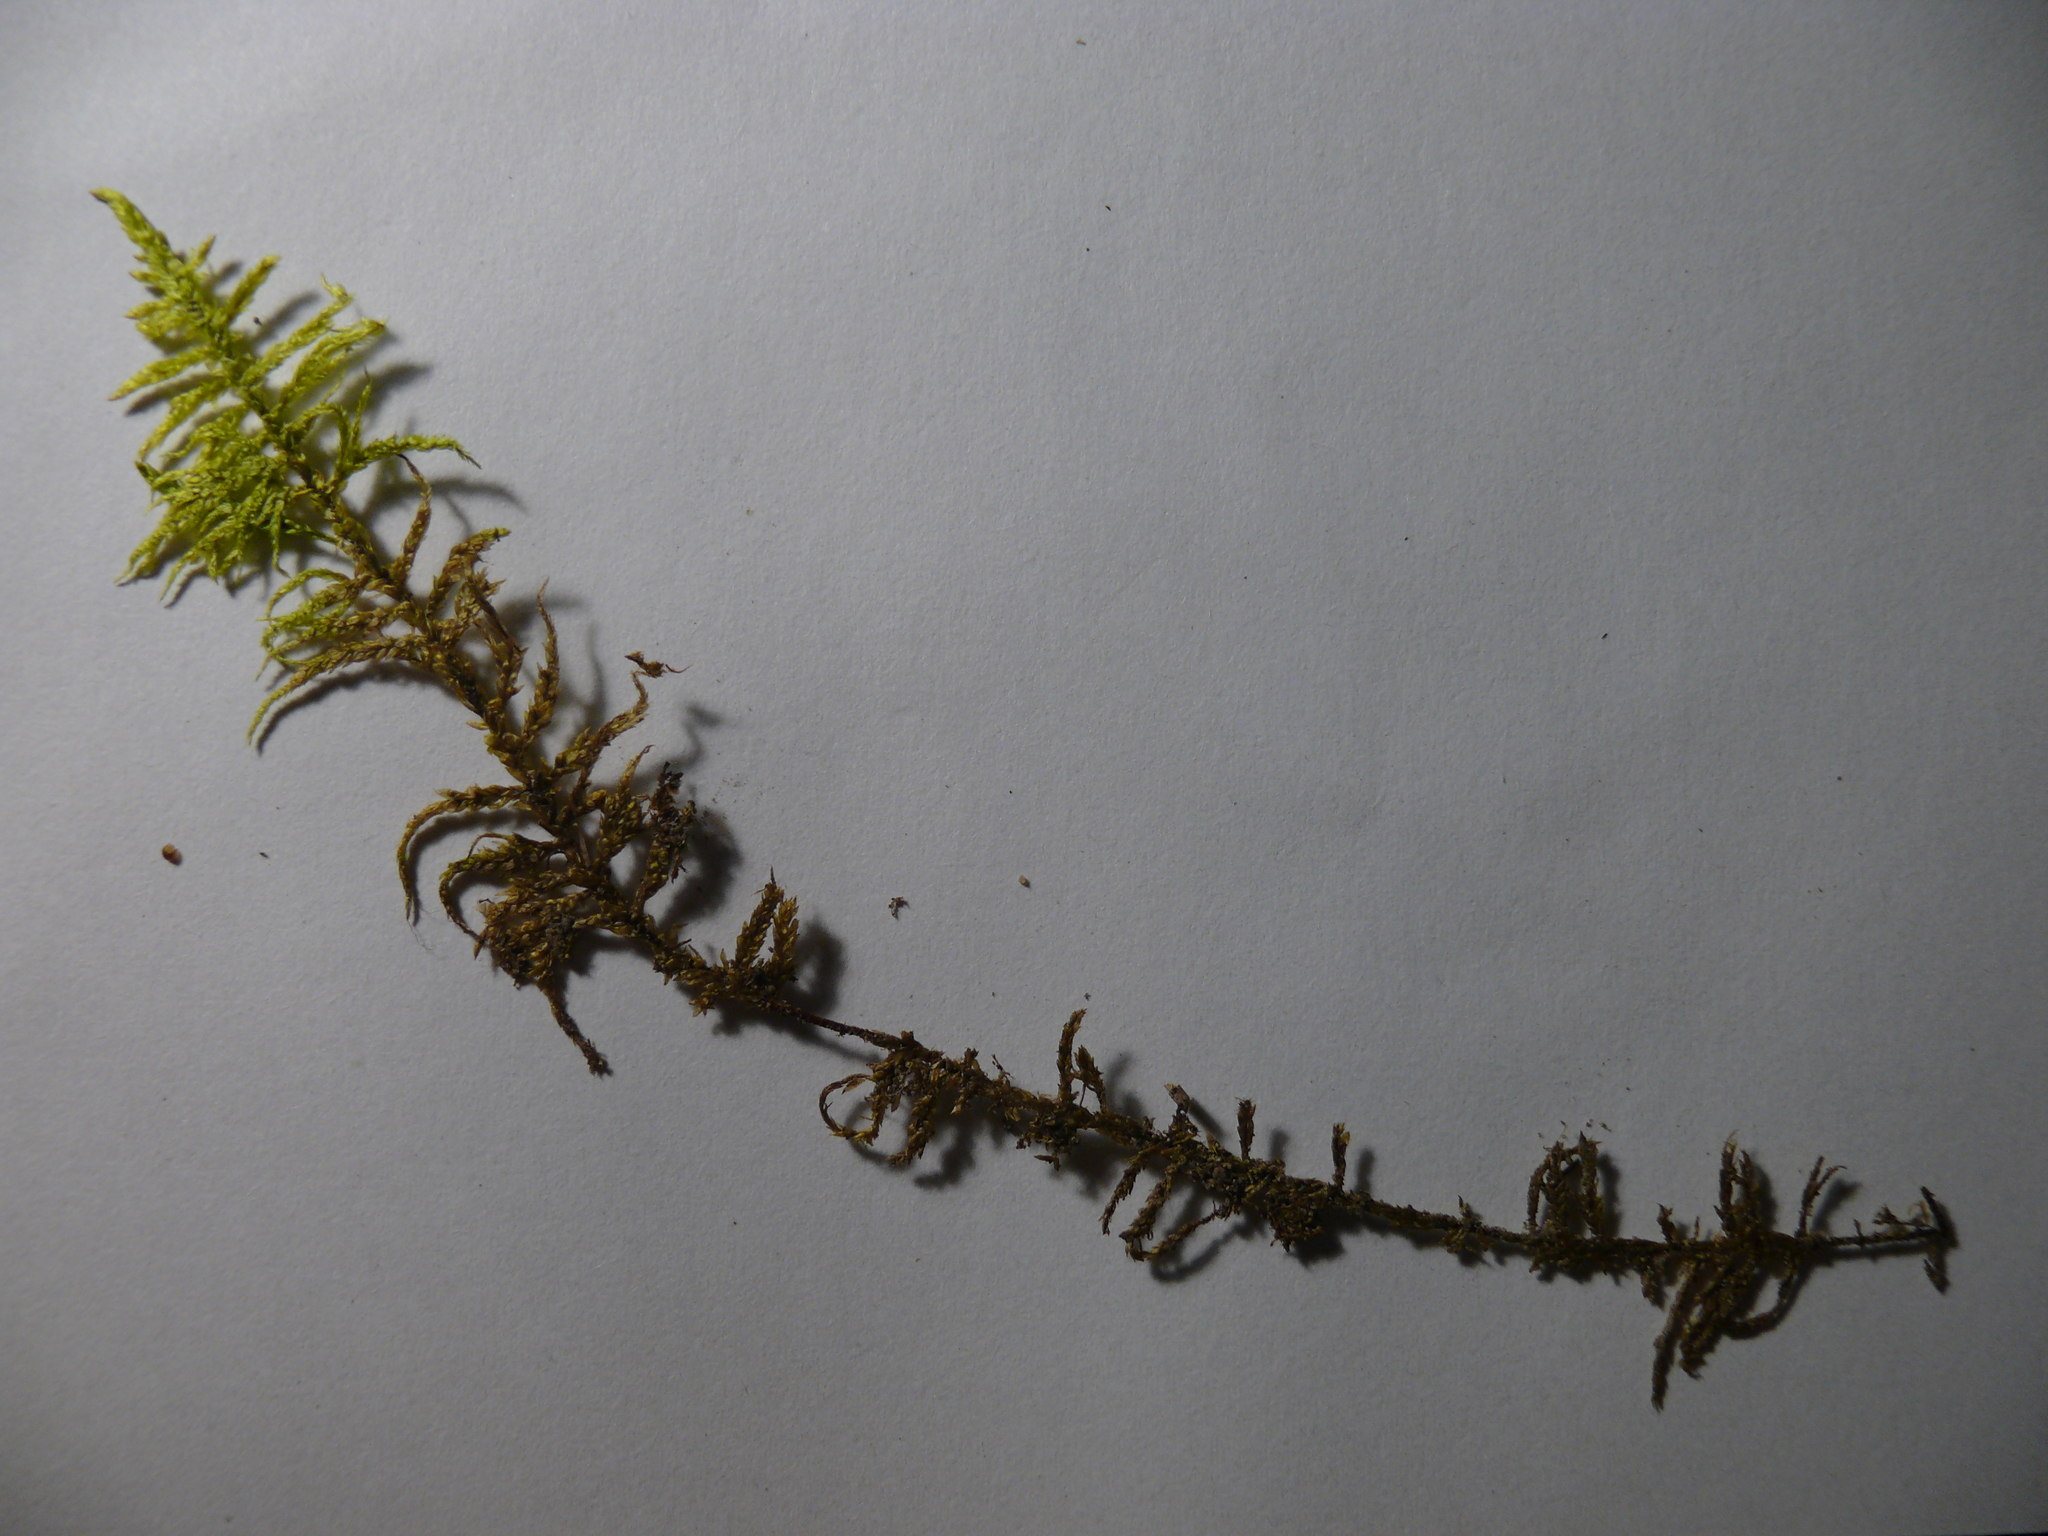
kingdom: Plantae
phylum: Bryophyta
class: Bryopsida
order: Hypnales
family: Hylocomiaceae
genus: Pleurozium
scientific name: Pleurozium schreberi
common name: Red-stemmed feather moss
